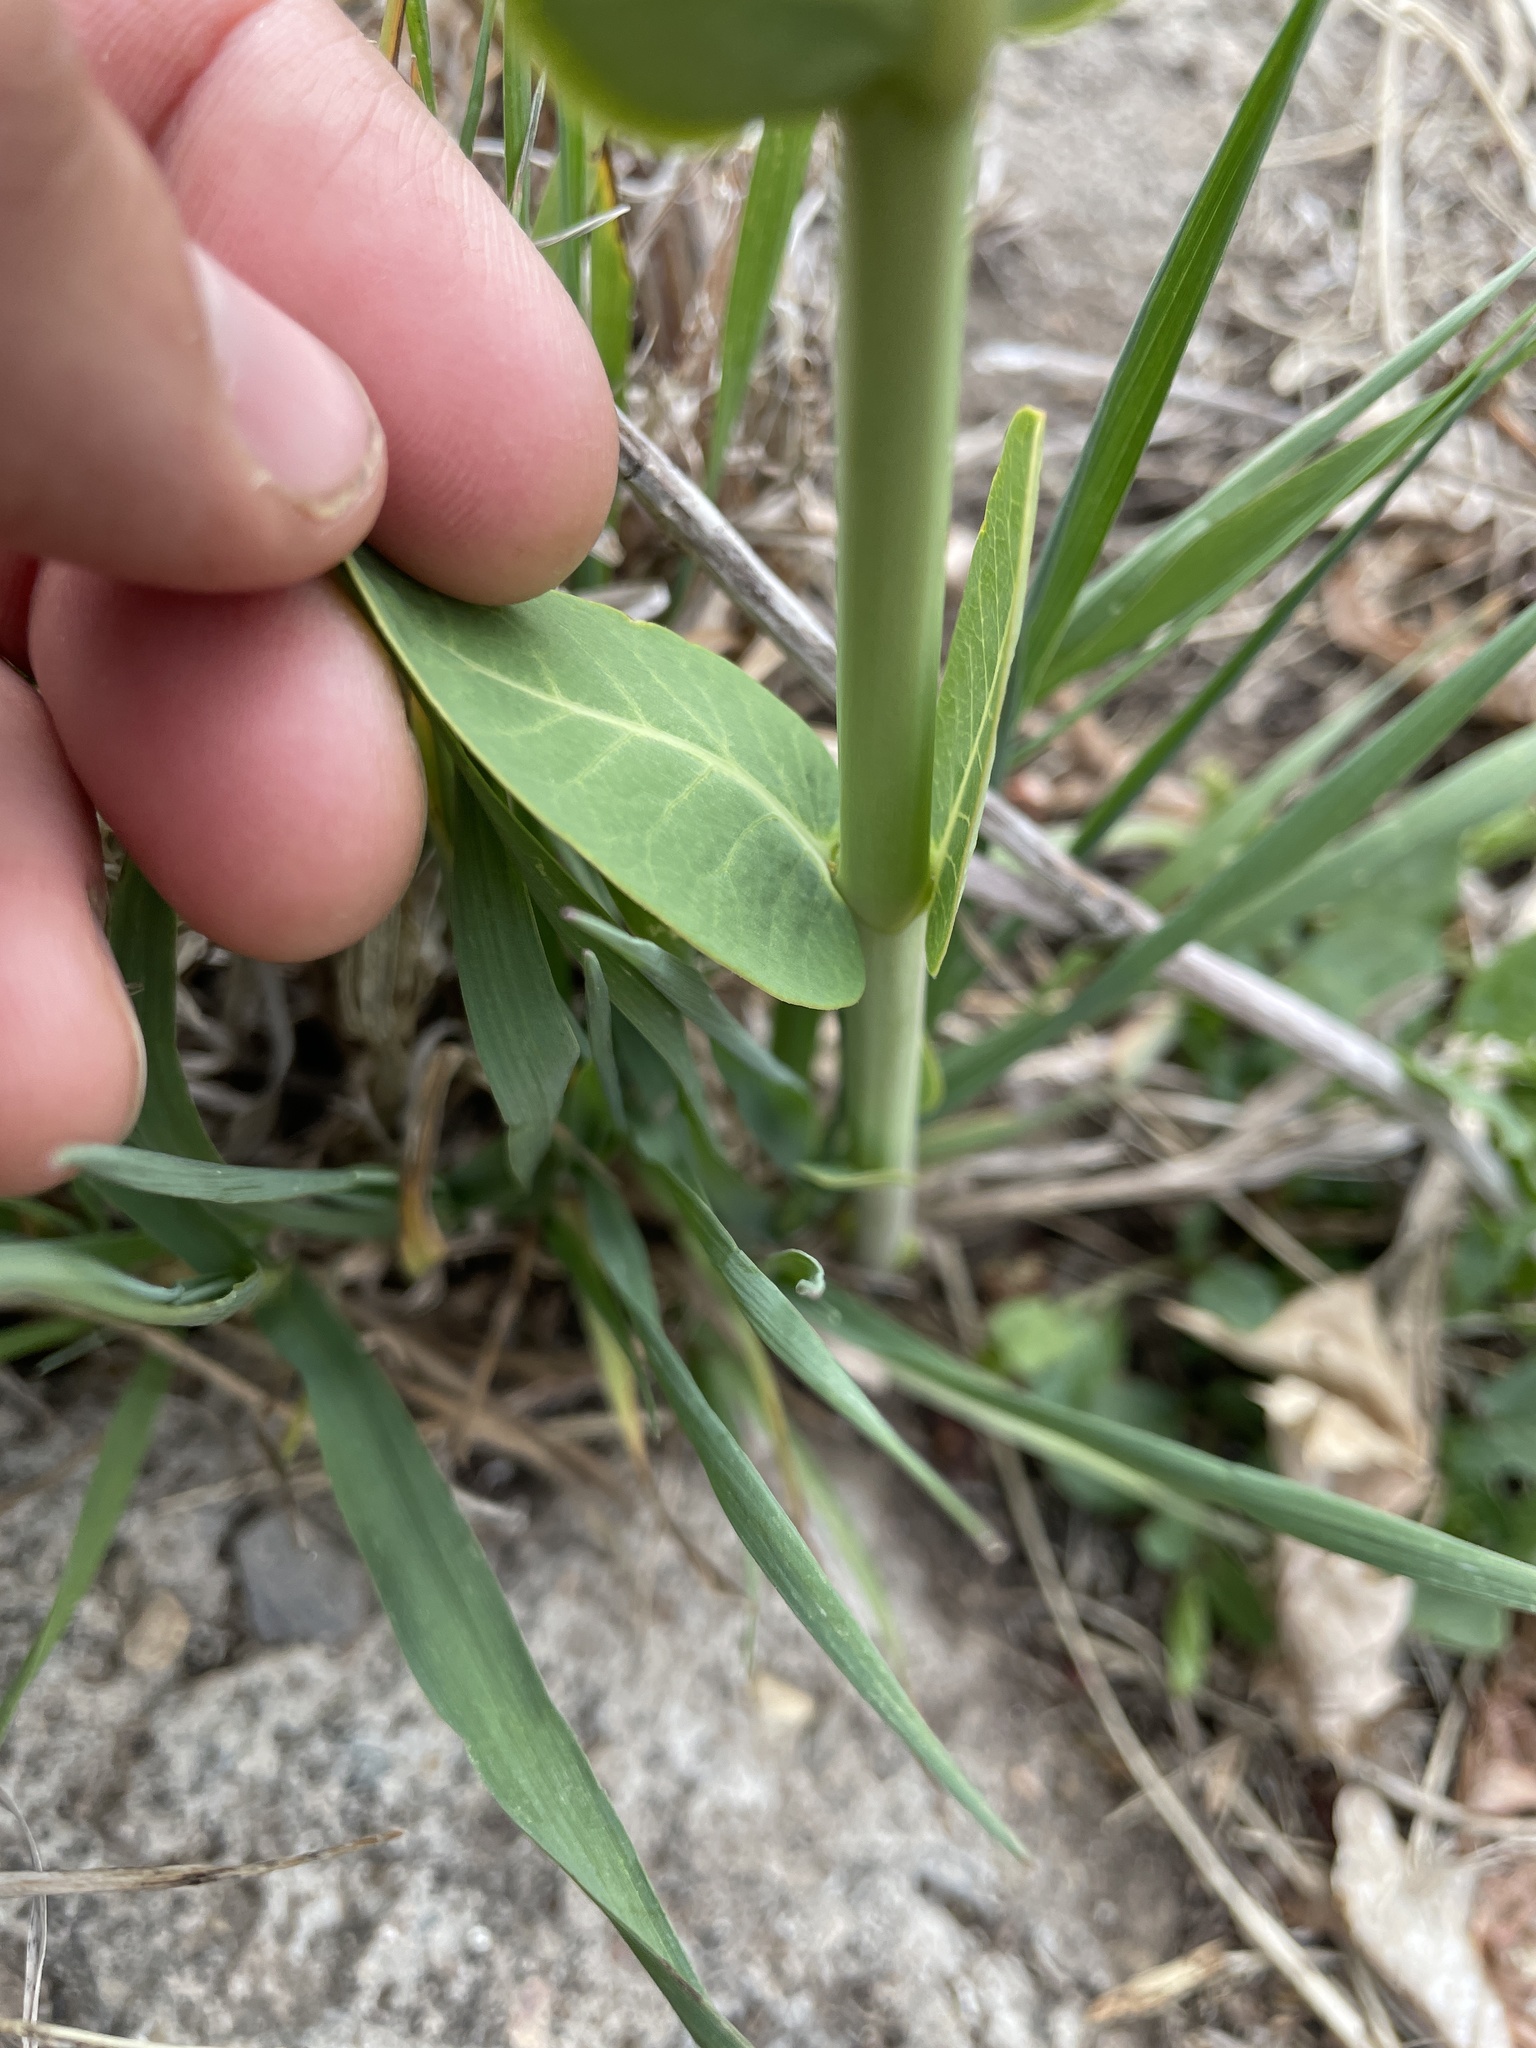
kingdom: Plantae
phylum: Tracheophyta
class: Magnoliopsida
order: Gentianales
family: Apocynaceae
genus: Asclepias
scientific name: Asclepias speciosa
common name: Showy milkweed
